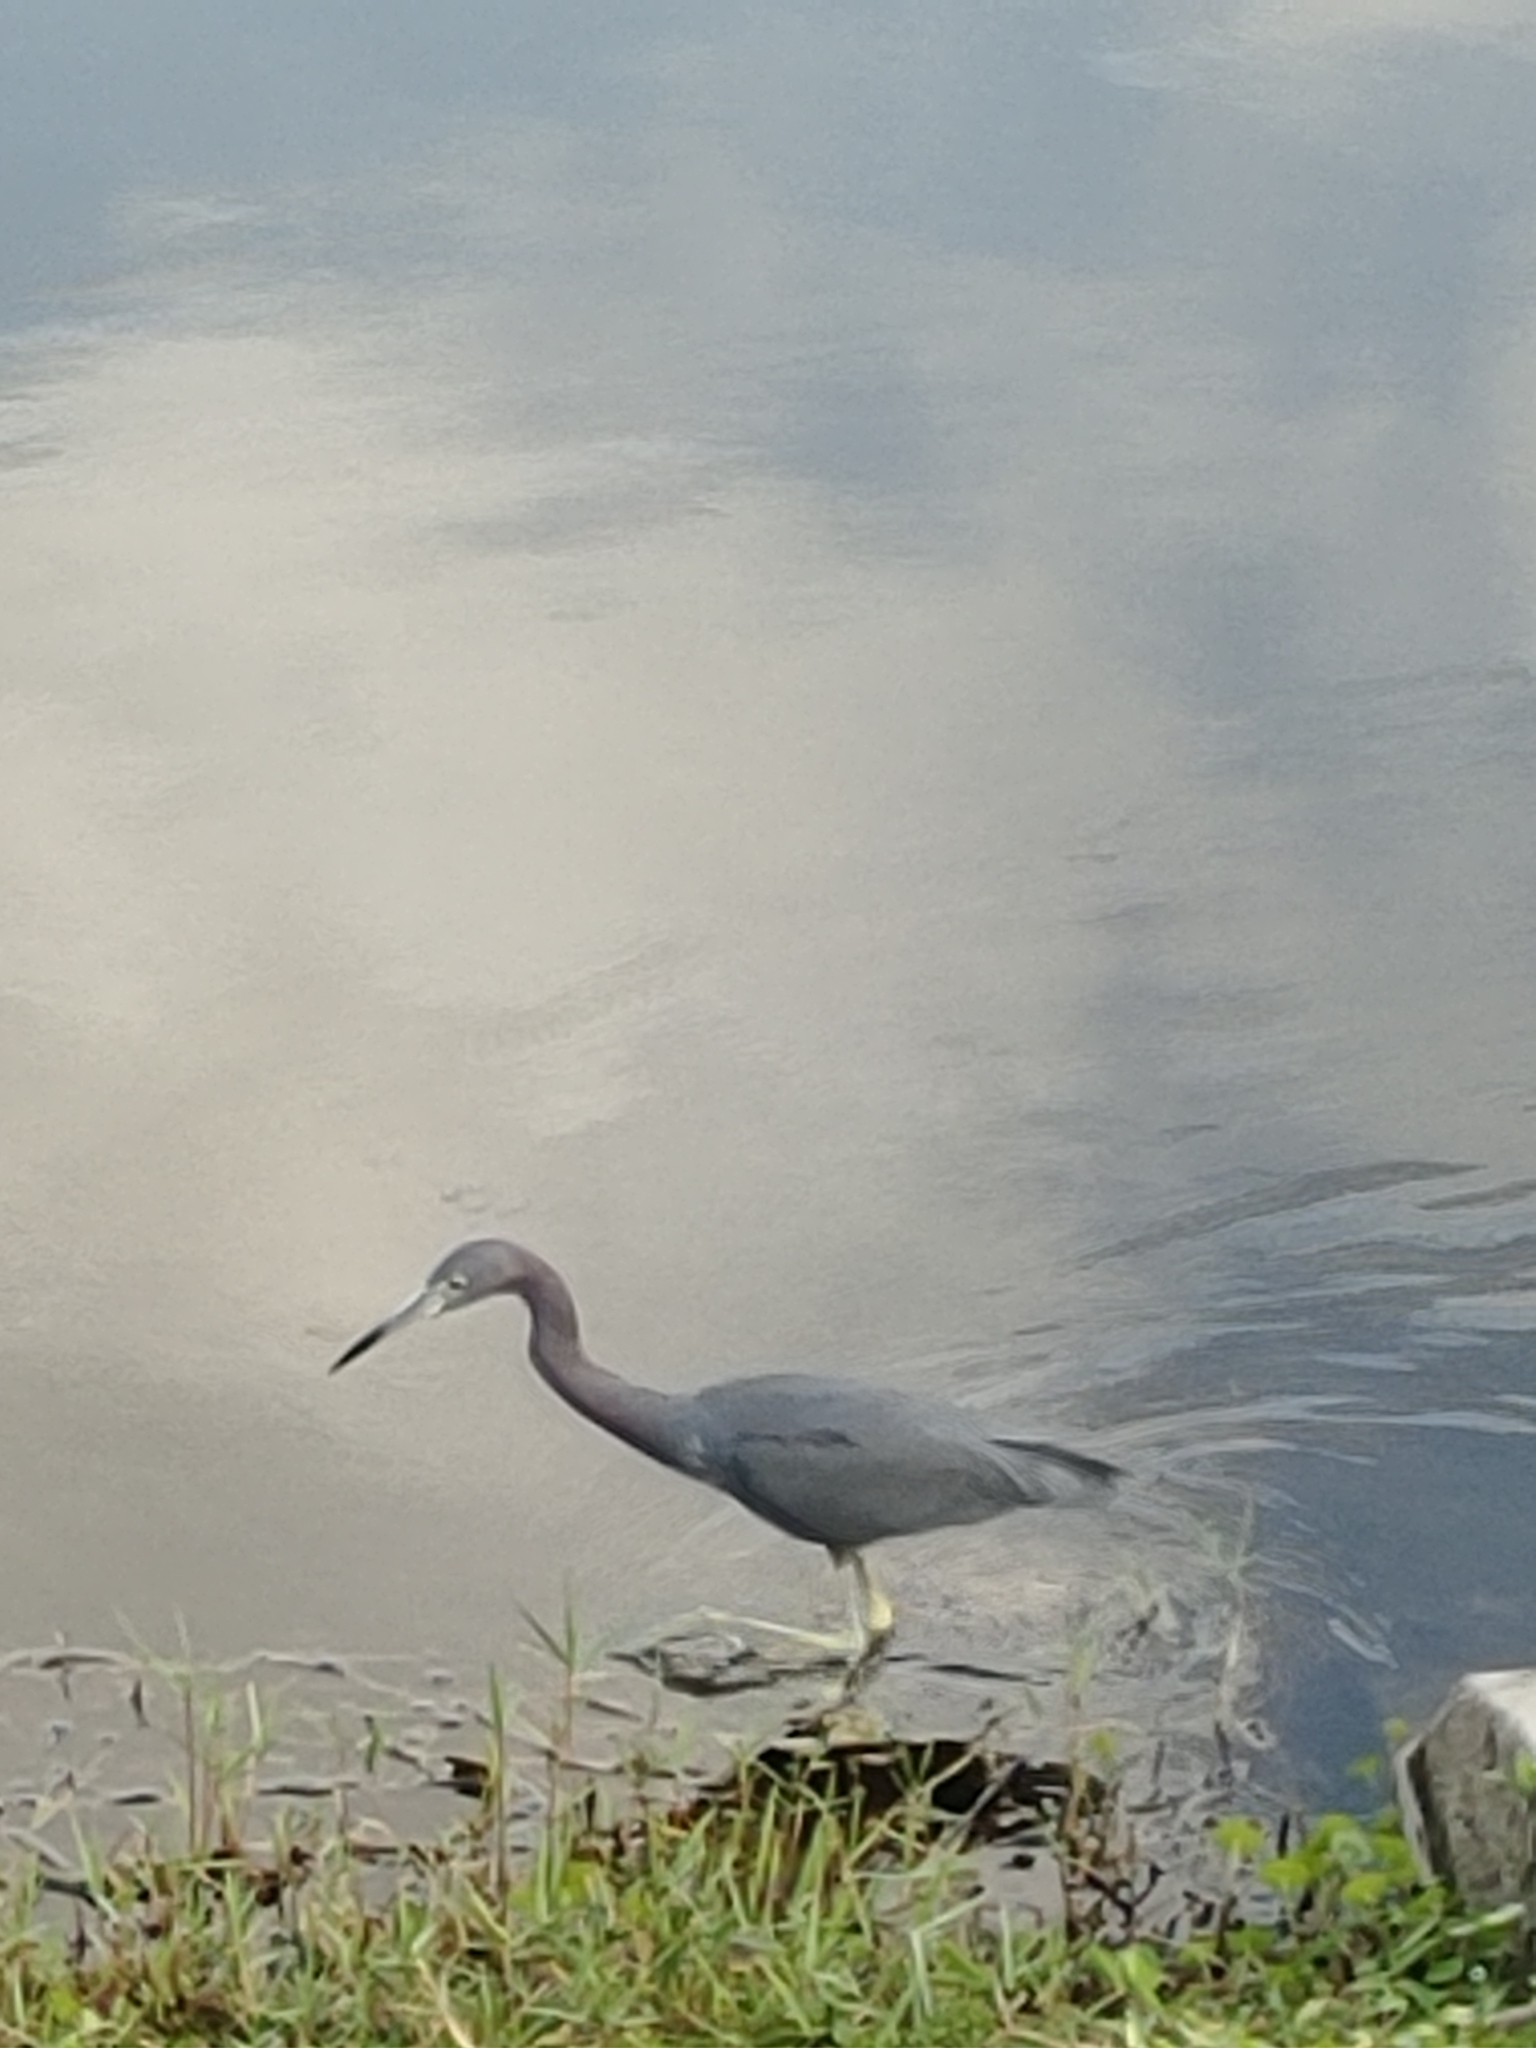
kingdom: Animalia
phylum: Chordata
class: Aves
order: Pelecaniformes
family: Ardeidae
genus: Egretta
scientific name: Egretta caerulea
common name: Little blue heron
